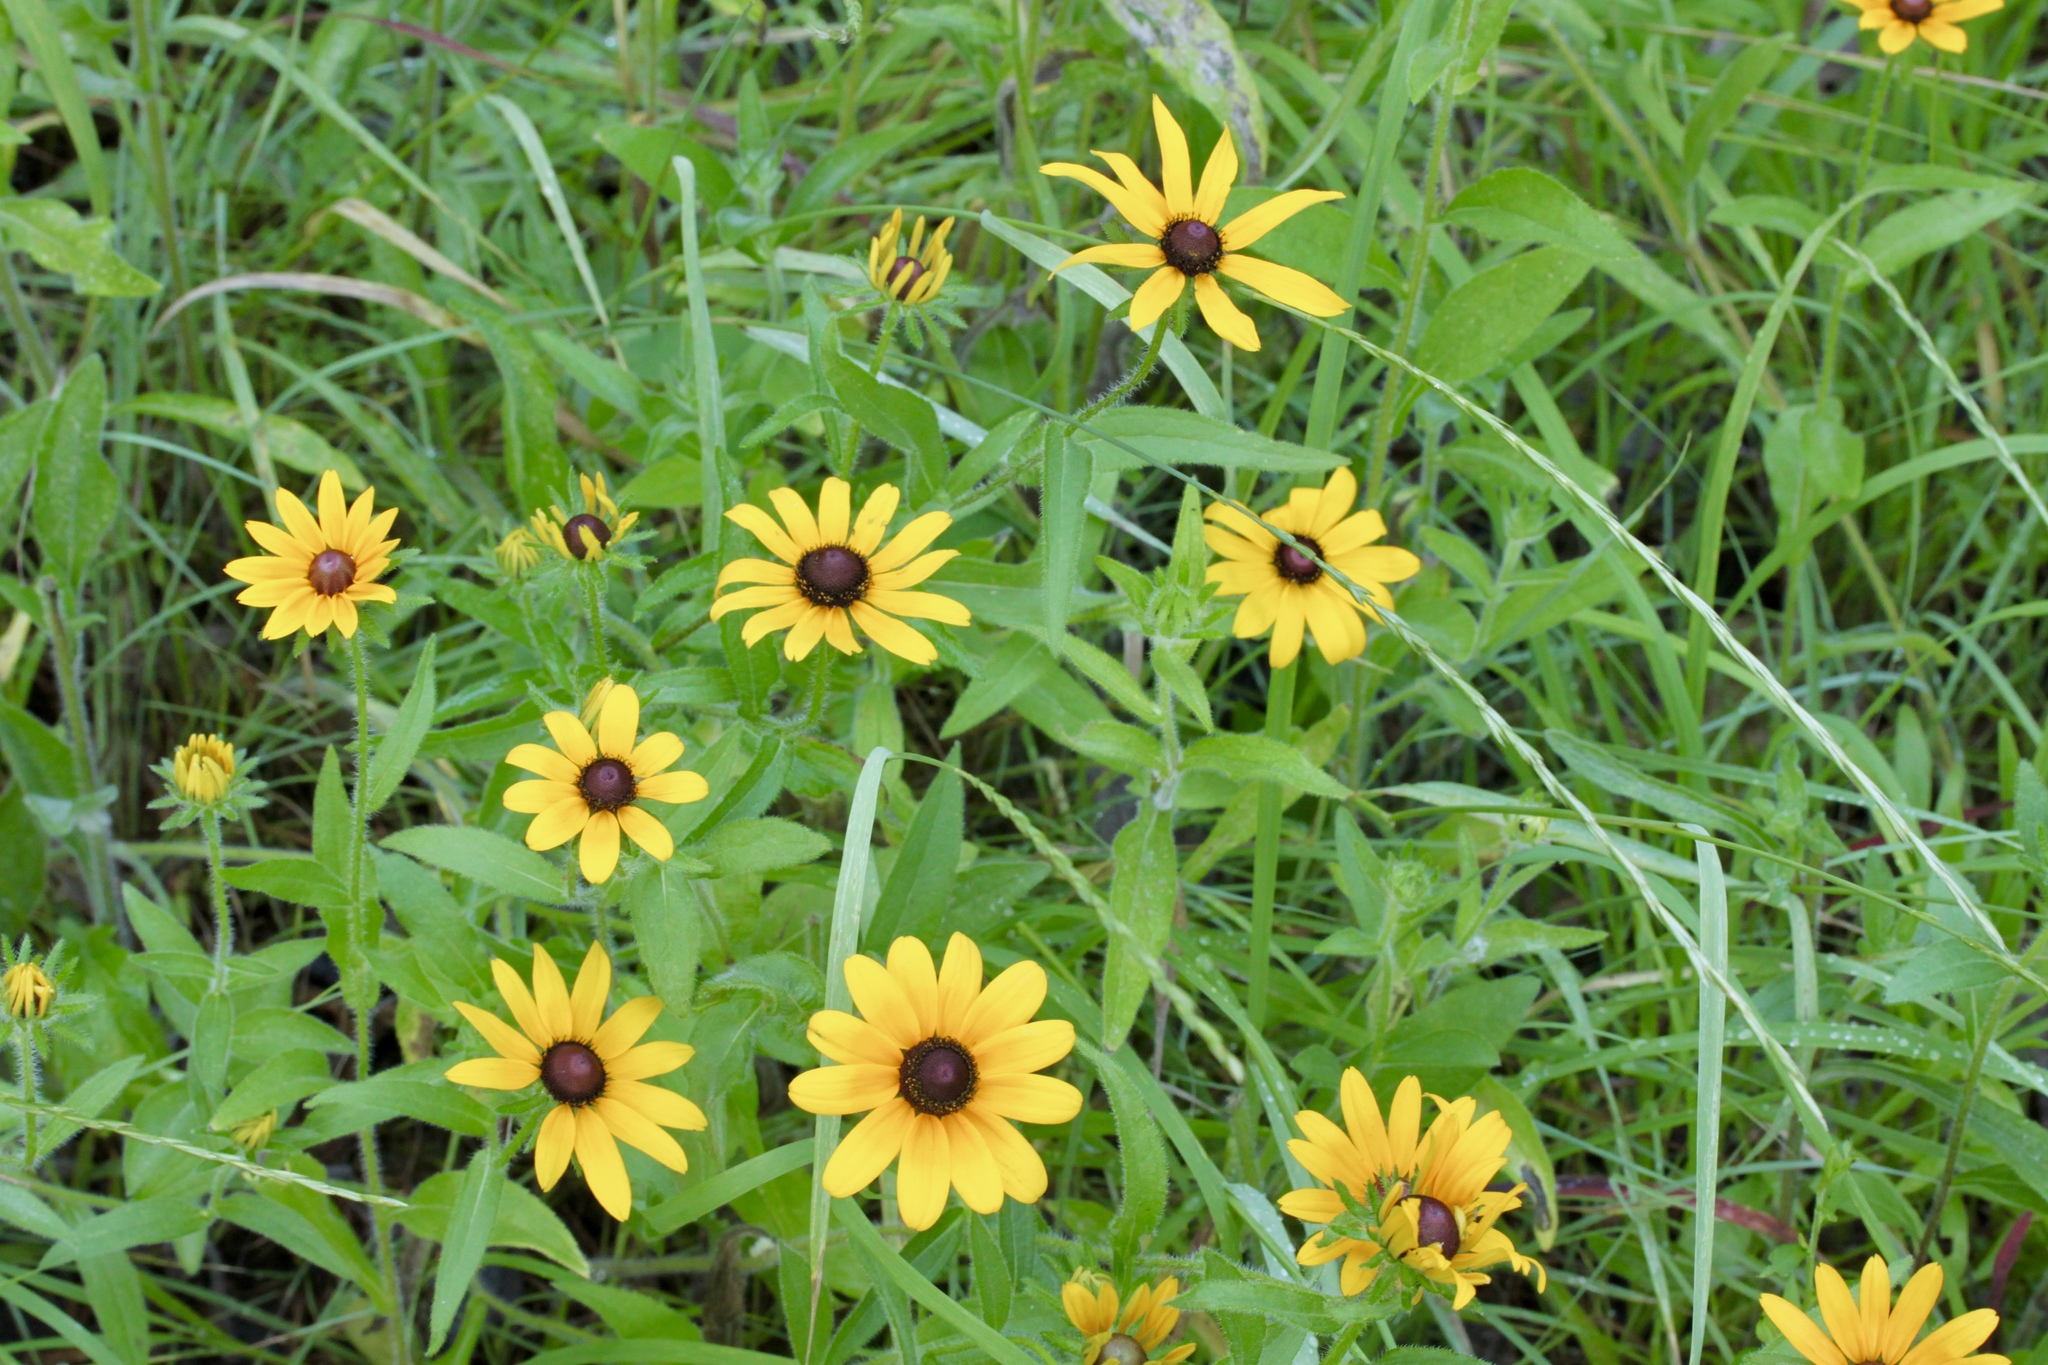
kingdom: Plantae
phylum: Tracheophyta
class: Magnoliopsida
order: Asterales
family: Asteraceae
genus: Rudbeckia
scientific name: Rudbeckia hirta
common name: Black-eyed-susan
